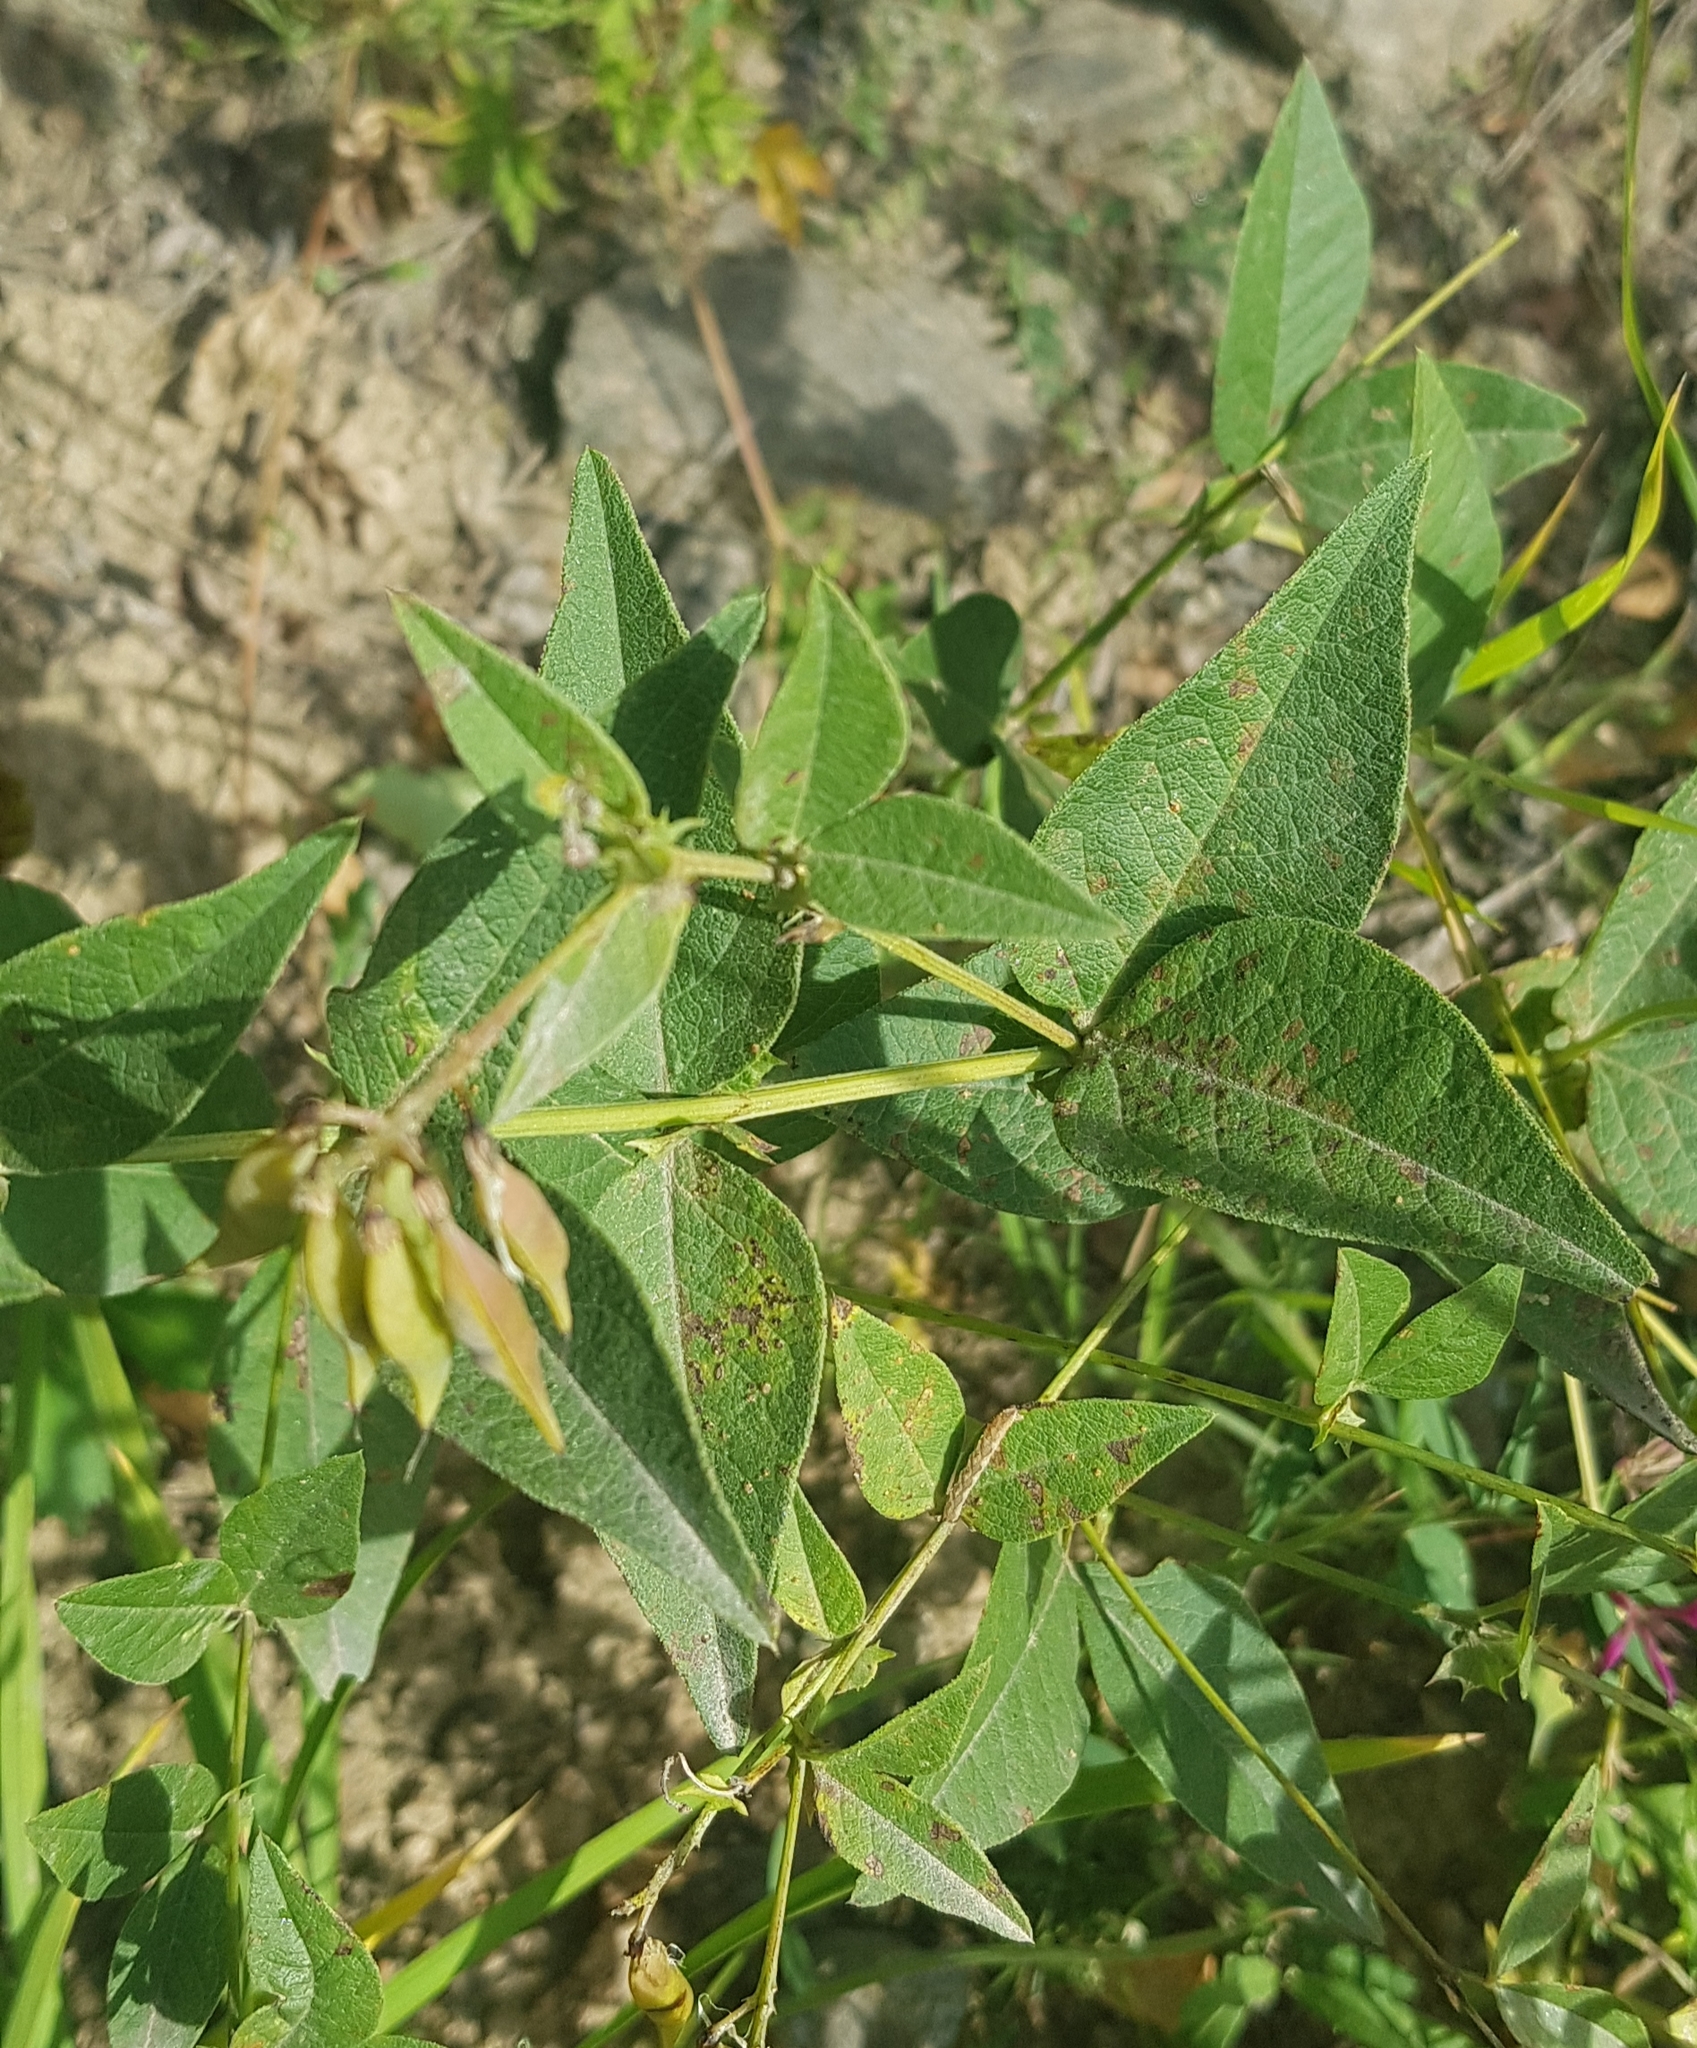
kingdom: Plantae
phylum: Tracheophyta
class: Magnoliopsida
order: Fabales
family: Fabaceae
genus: Vicia
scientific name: Vicia unijuga
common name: Two-leaf vetch
